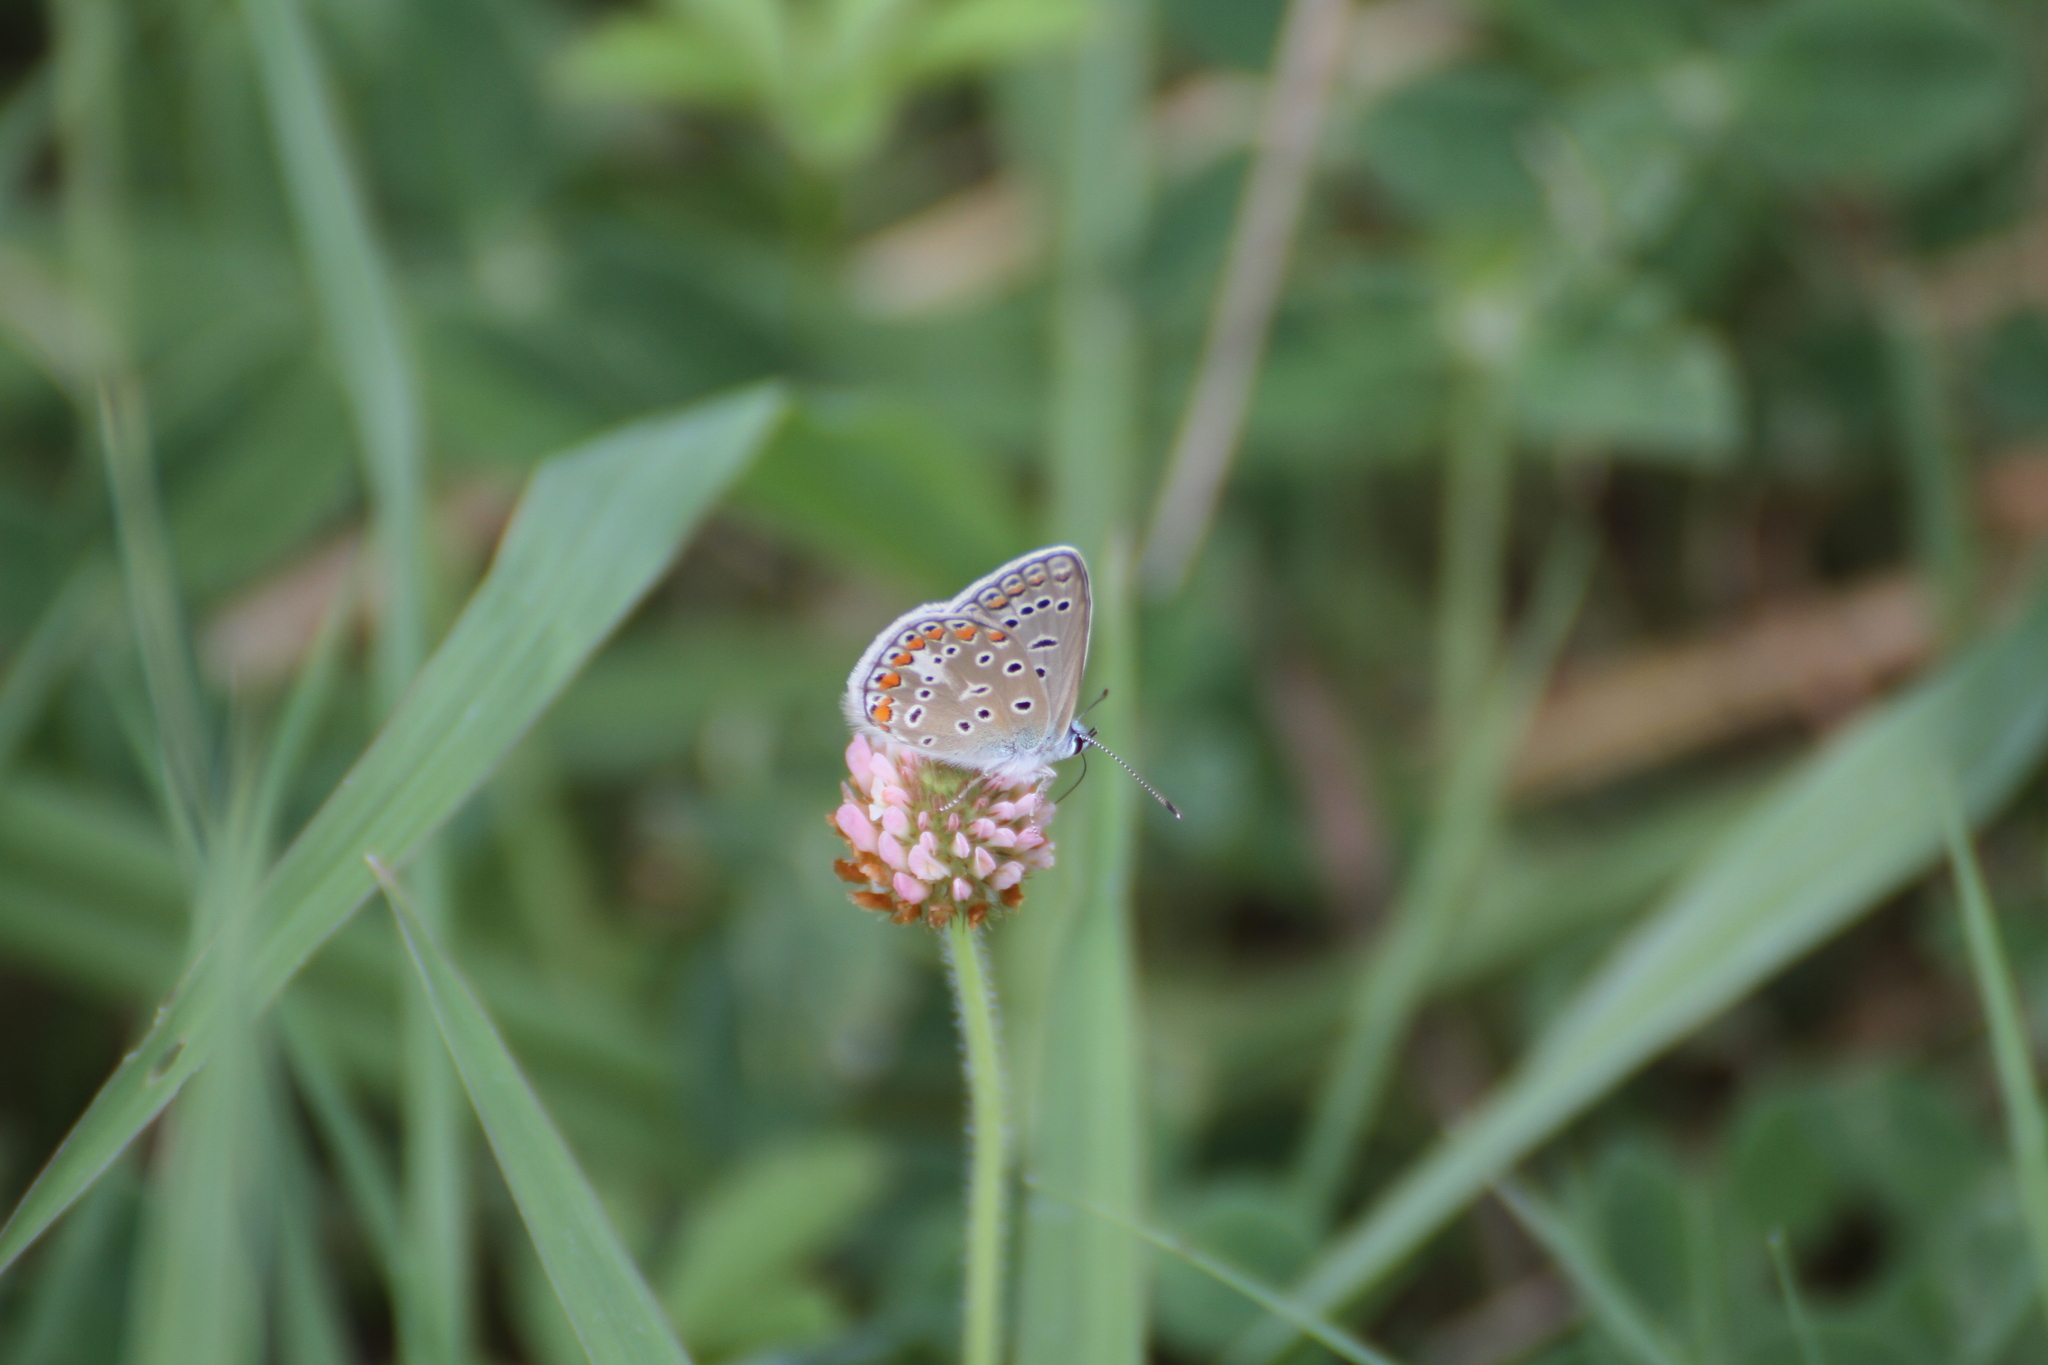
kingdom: Animalia
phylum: Arthropoda
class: Insecta
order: Lepidoptera
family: Lycaenidae
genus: Polyommatus
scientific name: Polyommatus icarus
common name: Common blue
